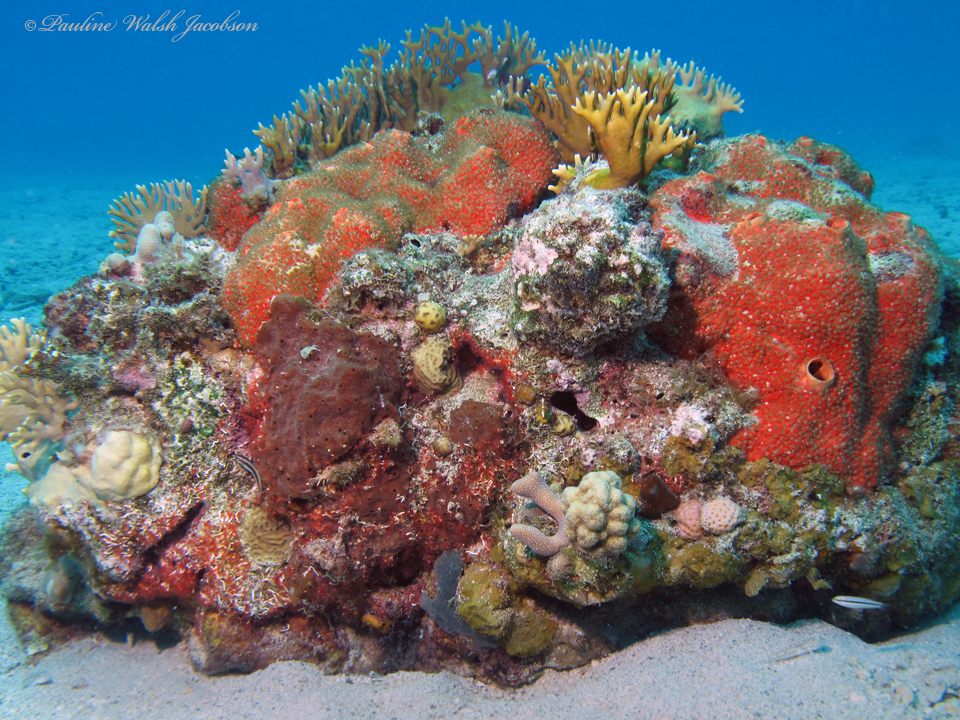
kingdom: Animalia
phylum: Cnidaria
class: Hydrozoa
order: Anthoathecata
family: Milleporidae
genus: Millepora
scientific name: Millepora alcicornis
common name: Branching fire coral
